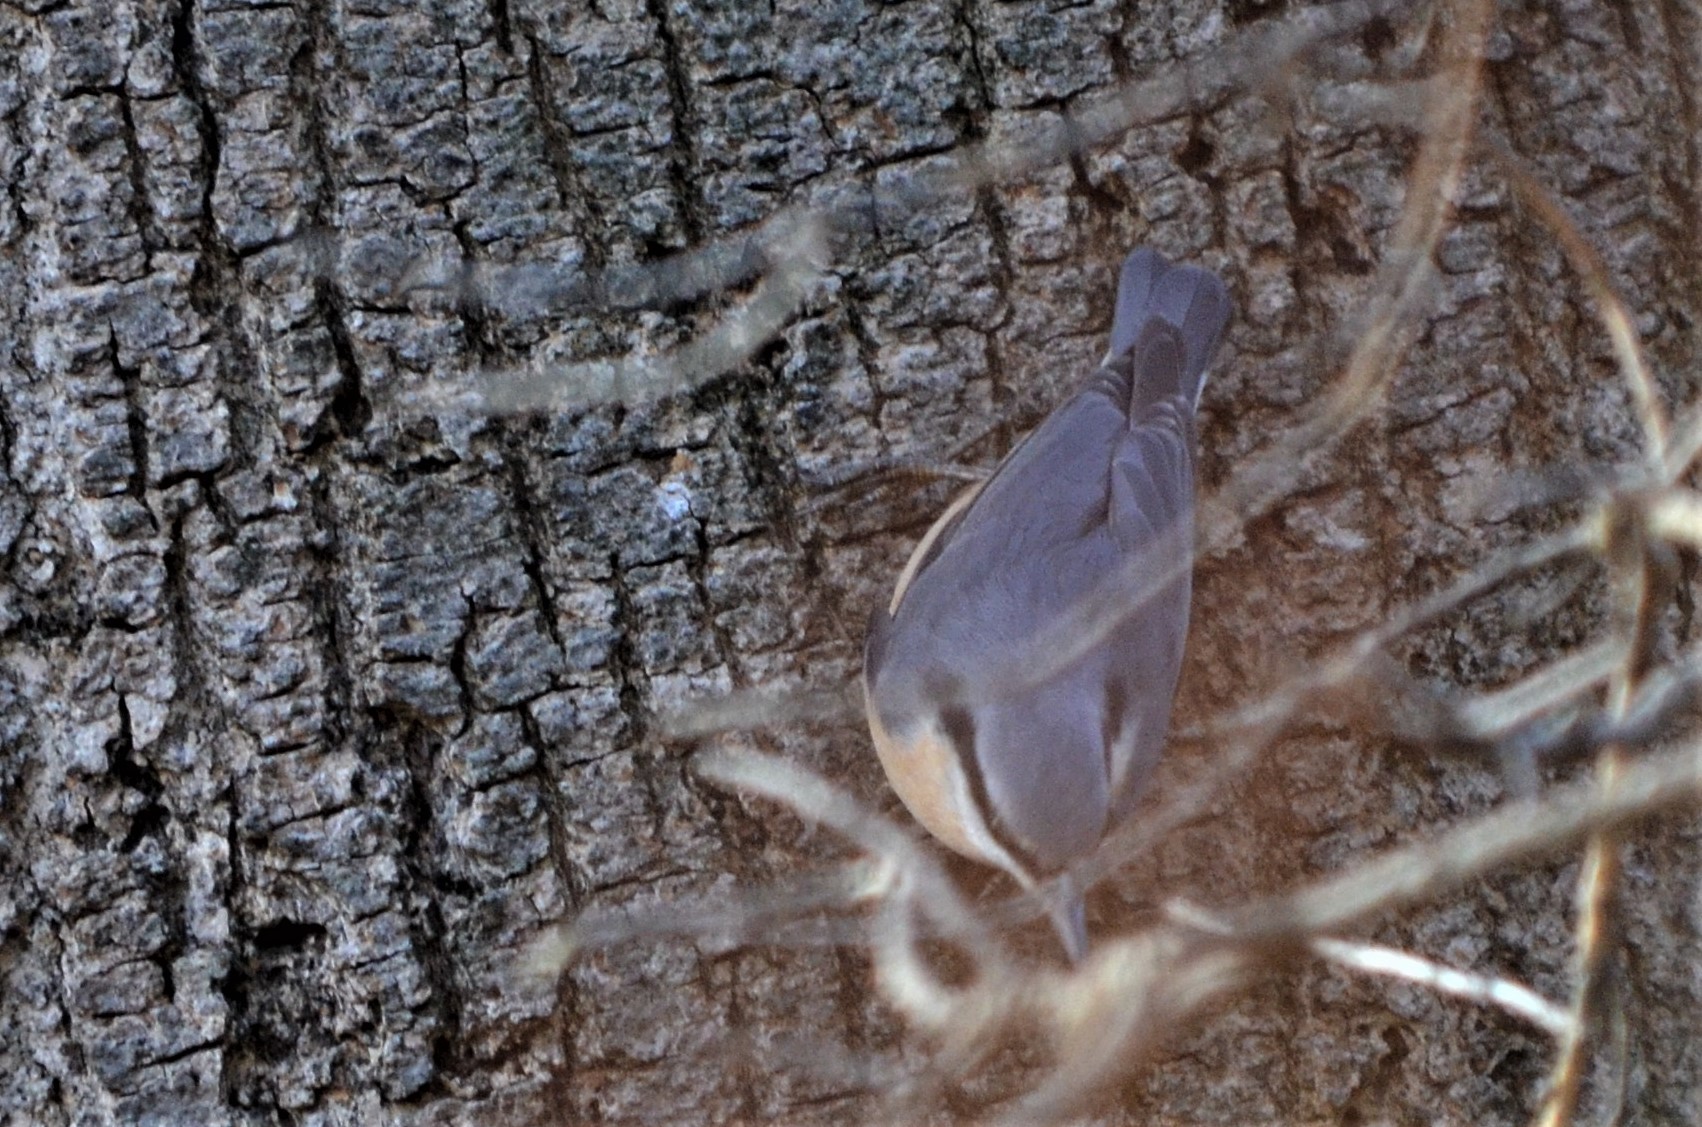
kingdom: Animalia
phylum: Chordata
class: Aves
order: Passeriformes
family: Sittidae
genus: Sitta
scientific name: Sitta europaea
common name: Eurasian nuthatch
